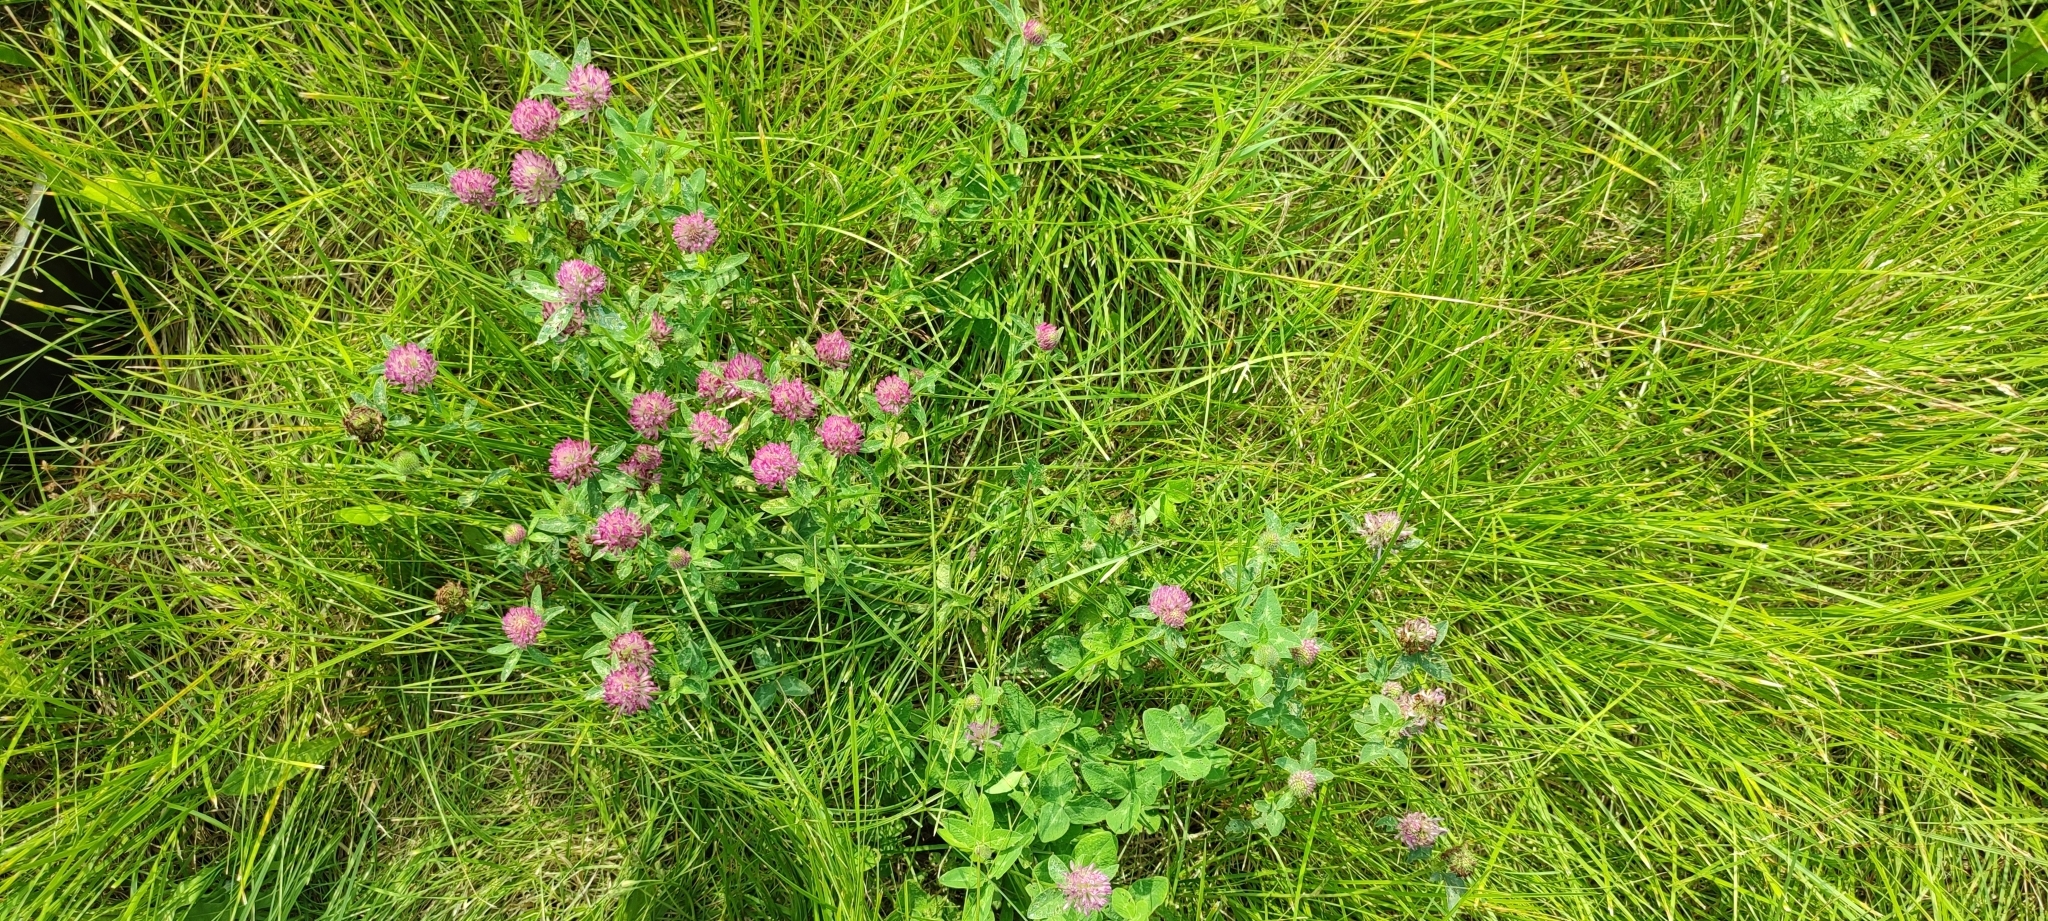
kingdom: Plantae
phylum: Tracheophyta
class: Magnoliopsida
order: Fabales
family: Fabaceae
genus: Trifolium
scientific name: Trifolium pratense
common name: Red clover
